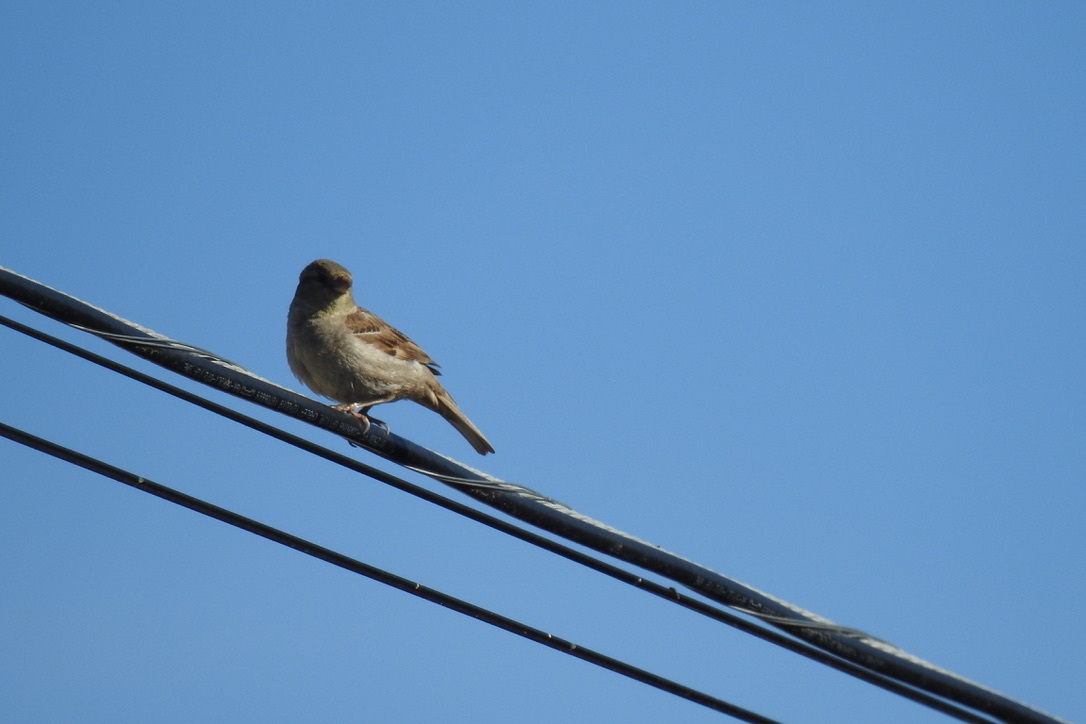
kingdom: Animalia
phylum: Chordata
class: Aves
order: Passeriformes
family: Passeridae
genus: Passer
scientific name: Passer domesticus
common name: House sparrow
